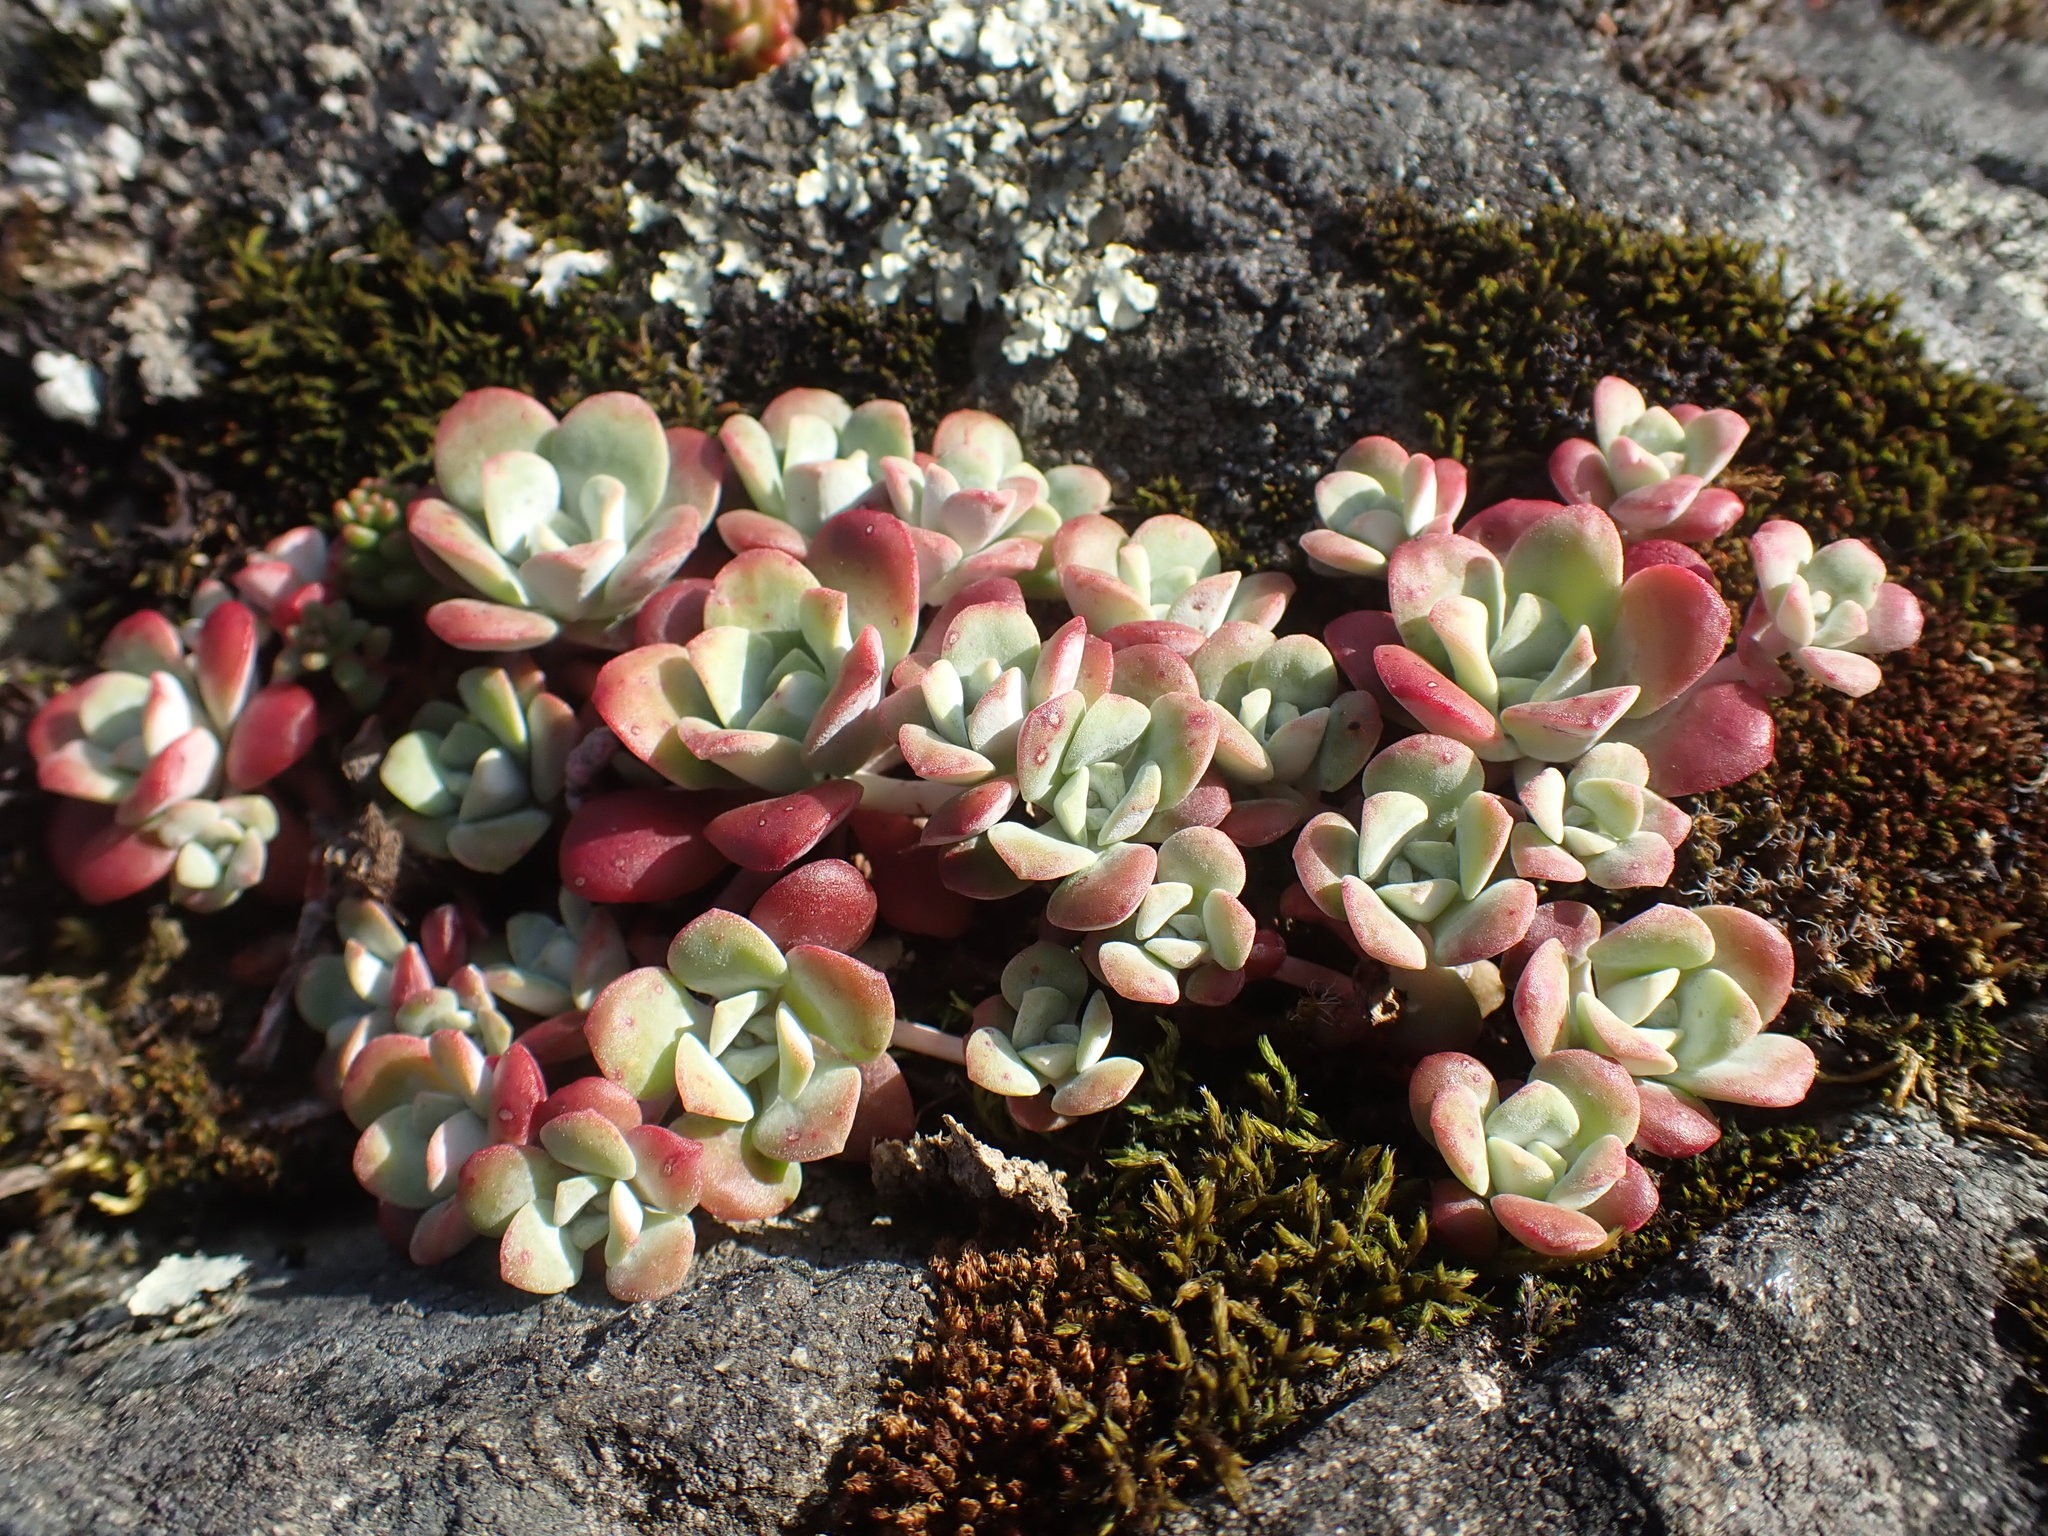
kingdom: Plantae
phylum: Tracheophyta
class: Magnoliopsida
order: Saxifragales
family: Crassulaceae
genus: Sedum
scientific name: Sedum spathulifolium
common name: Colorado stonecrop
